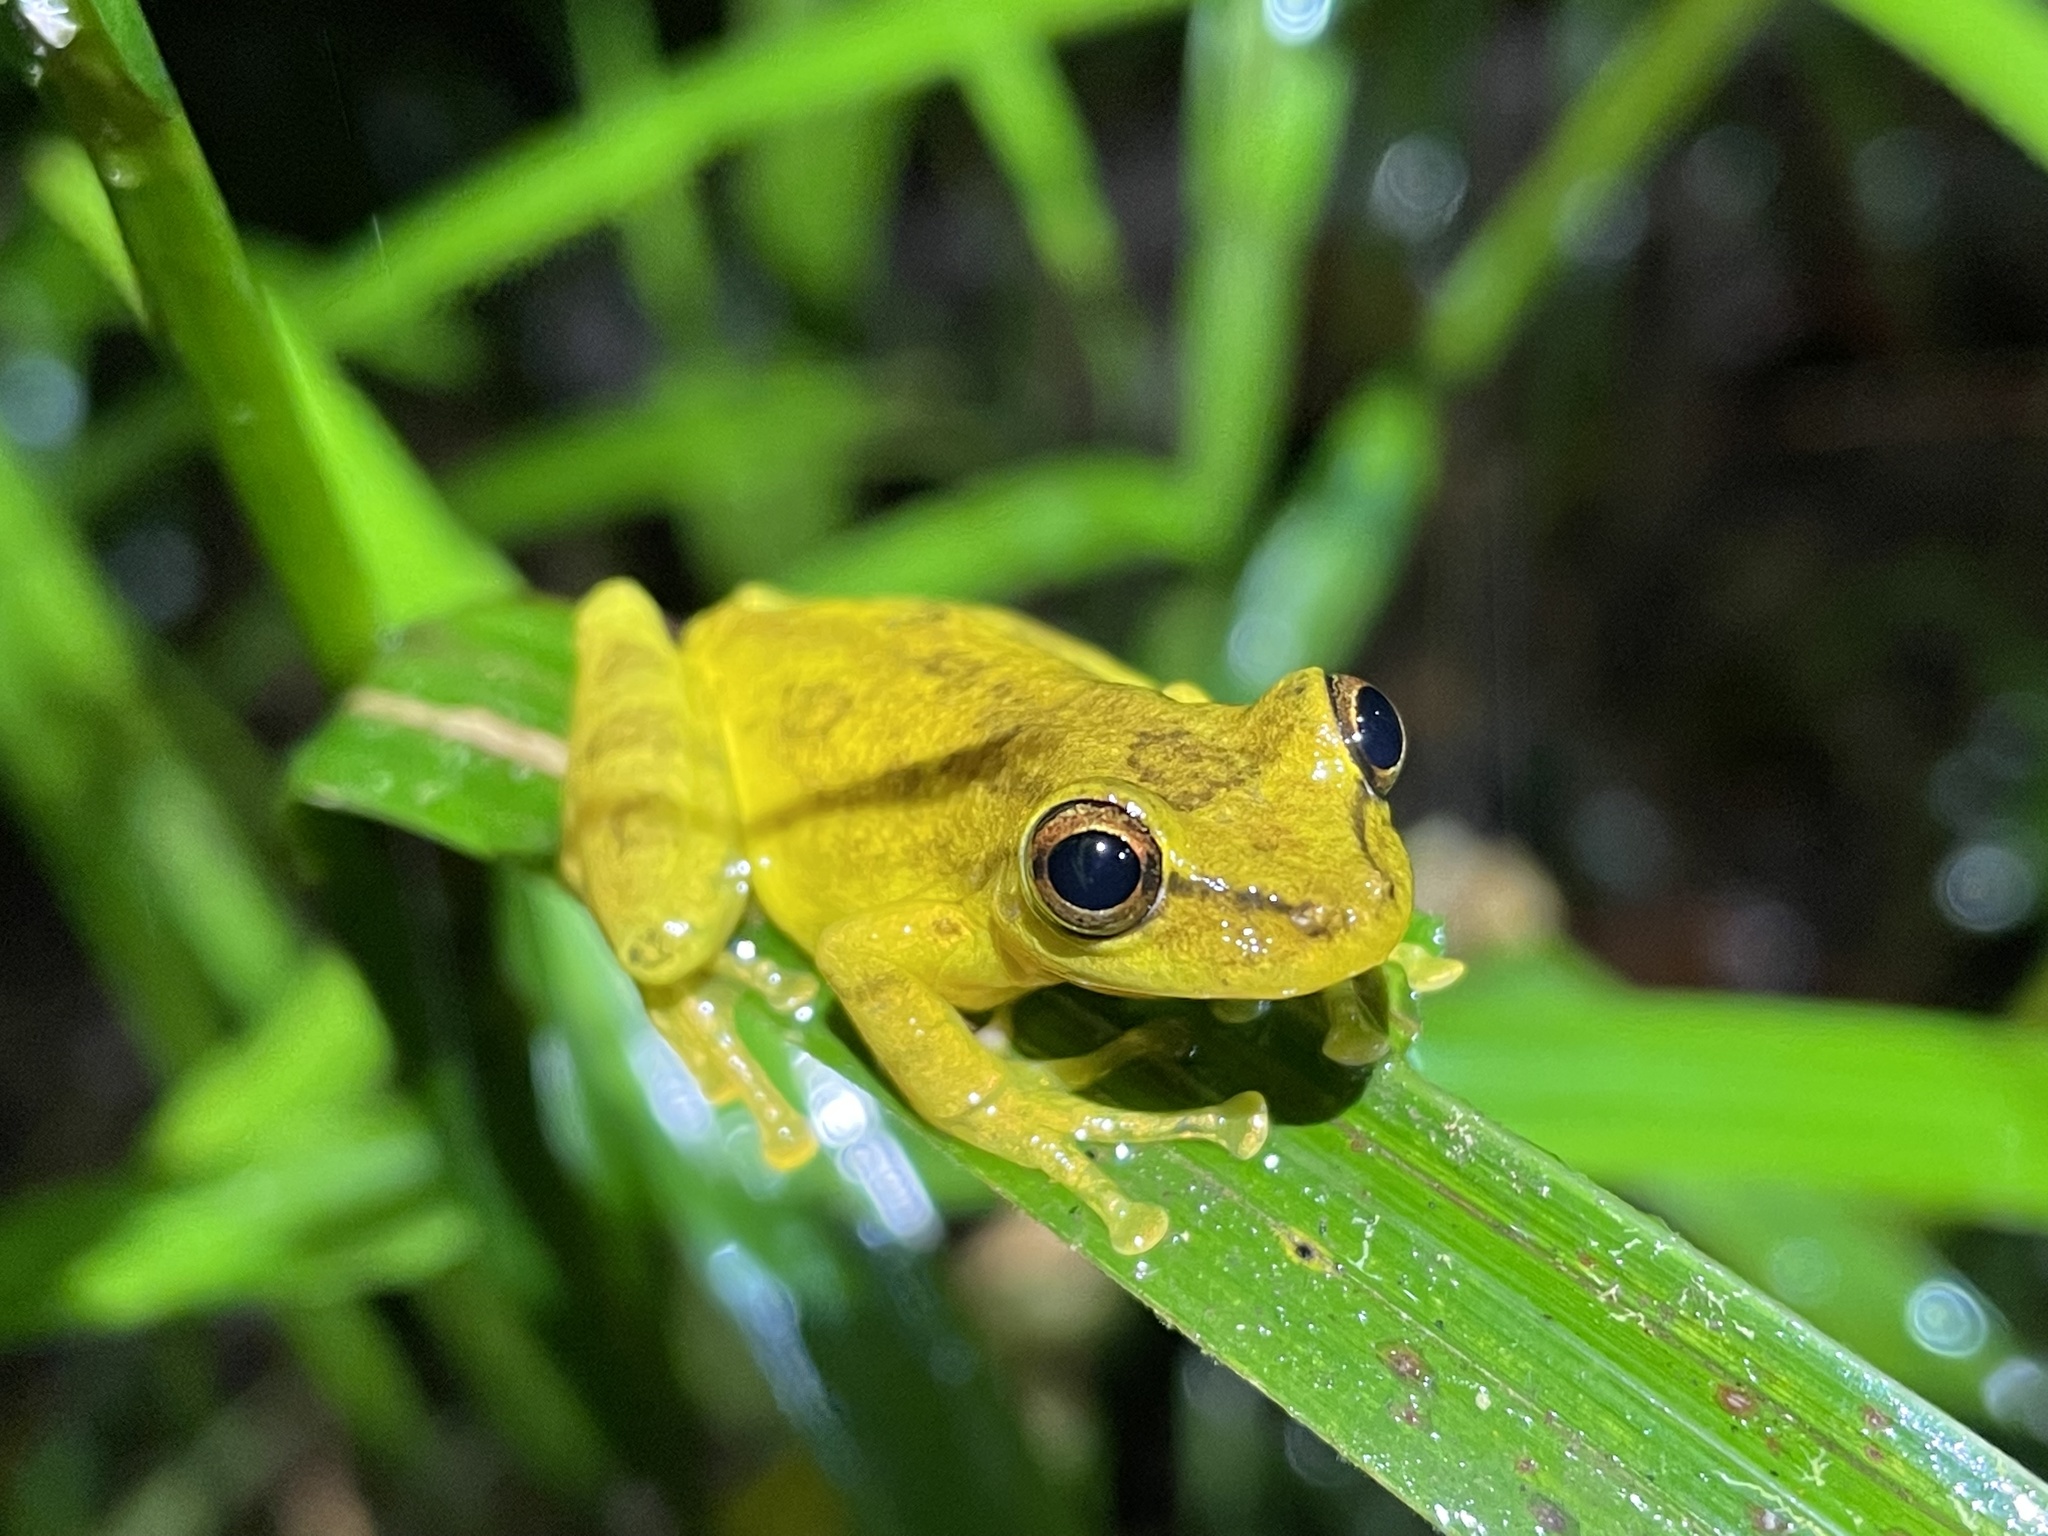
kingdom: Animalia
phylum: Chordata
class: Amphibia
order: Anura
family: Hylidae
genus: Scinax
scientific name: Scinax elaeochroa
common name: Sipurio snouted treefrog
